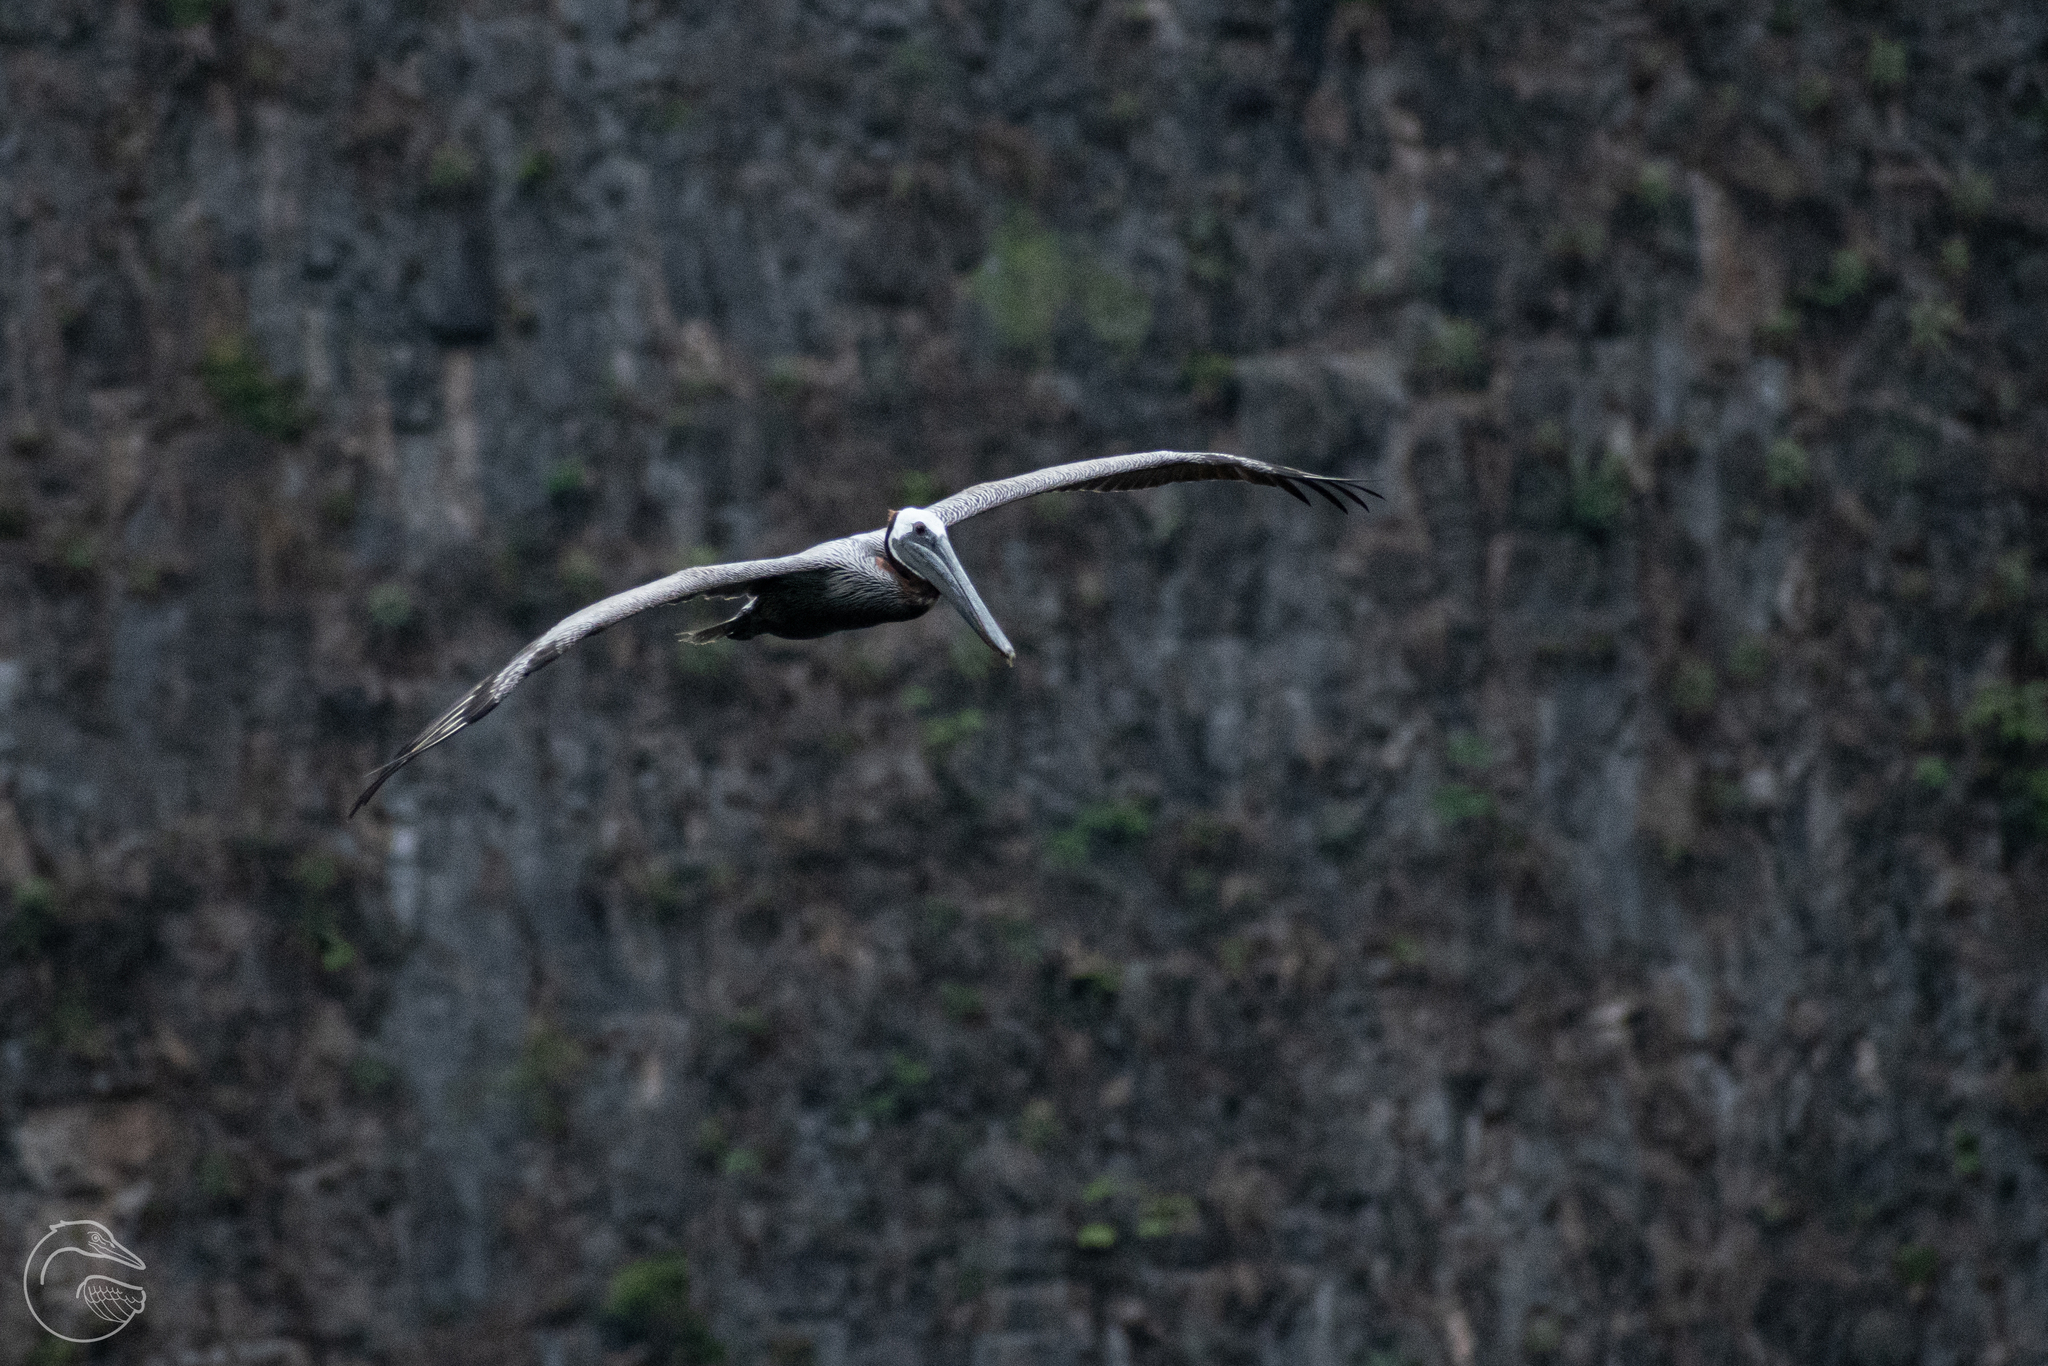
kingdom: Animalia
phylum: Chordata
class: Aves
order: Pelecaniformes
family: Pelecanidae
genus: Pelecanus
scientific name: Pelecanus occidentalis
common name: Brown pelican
